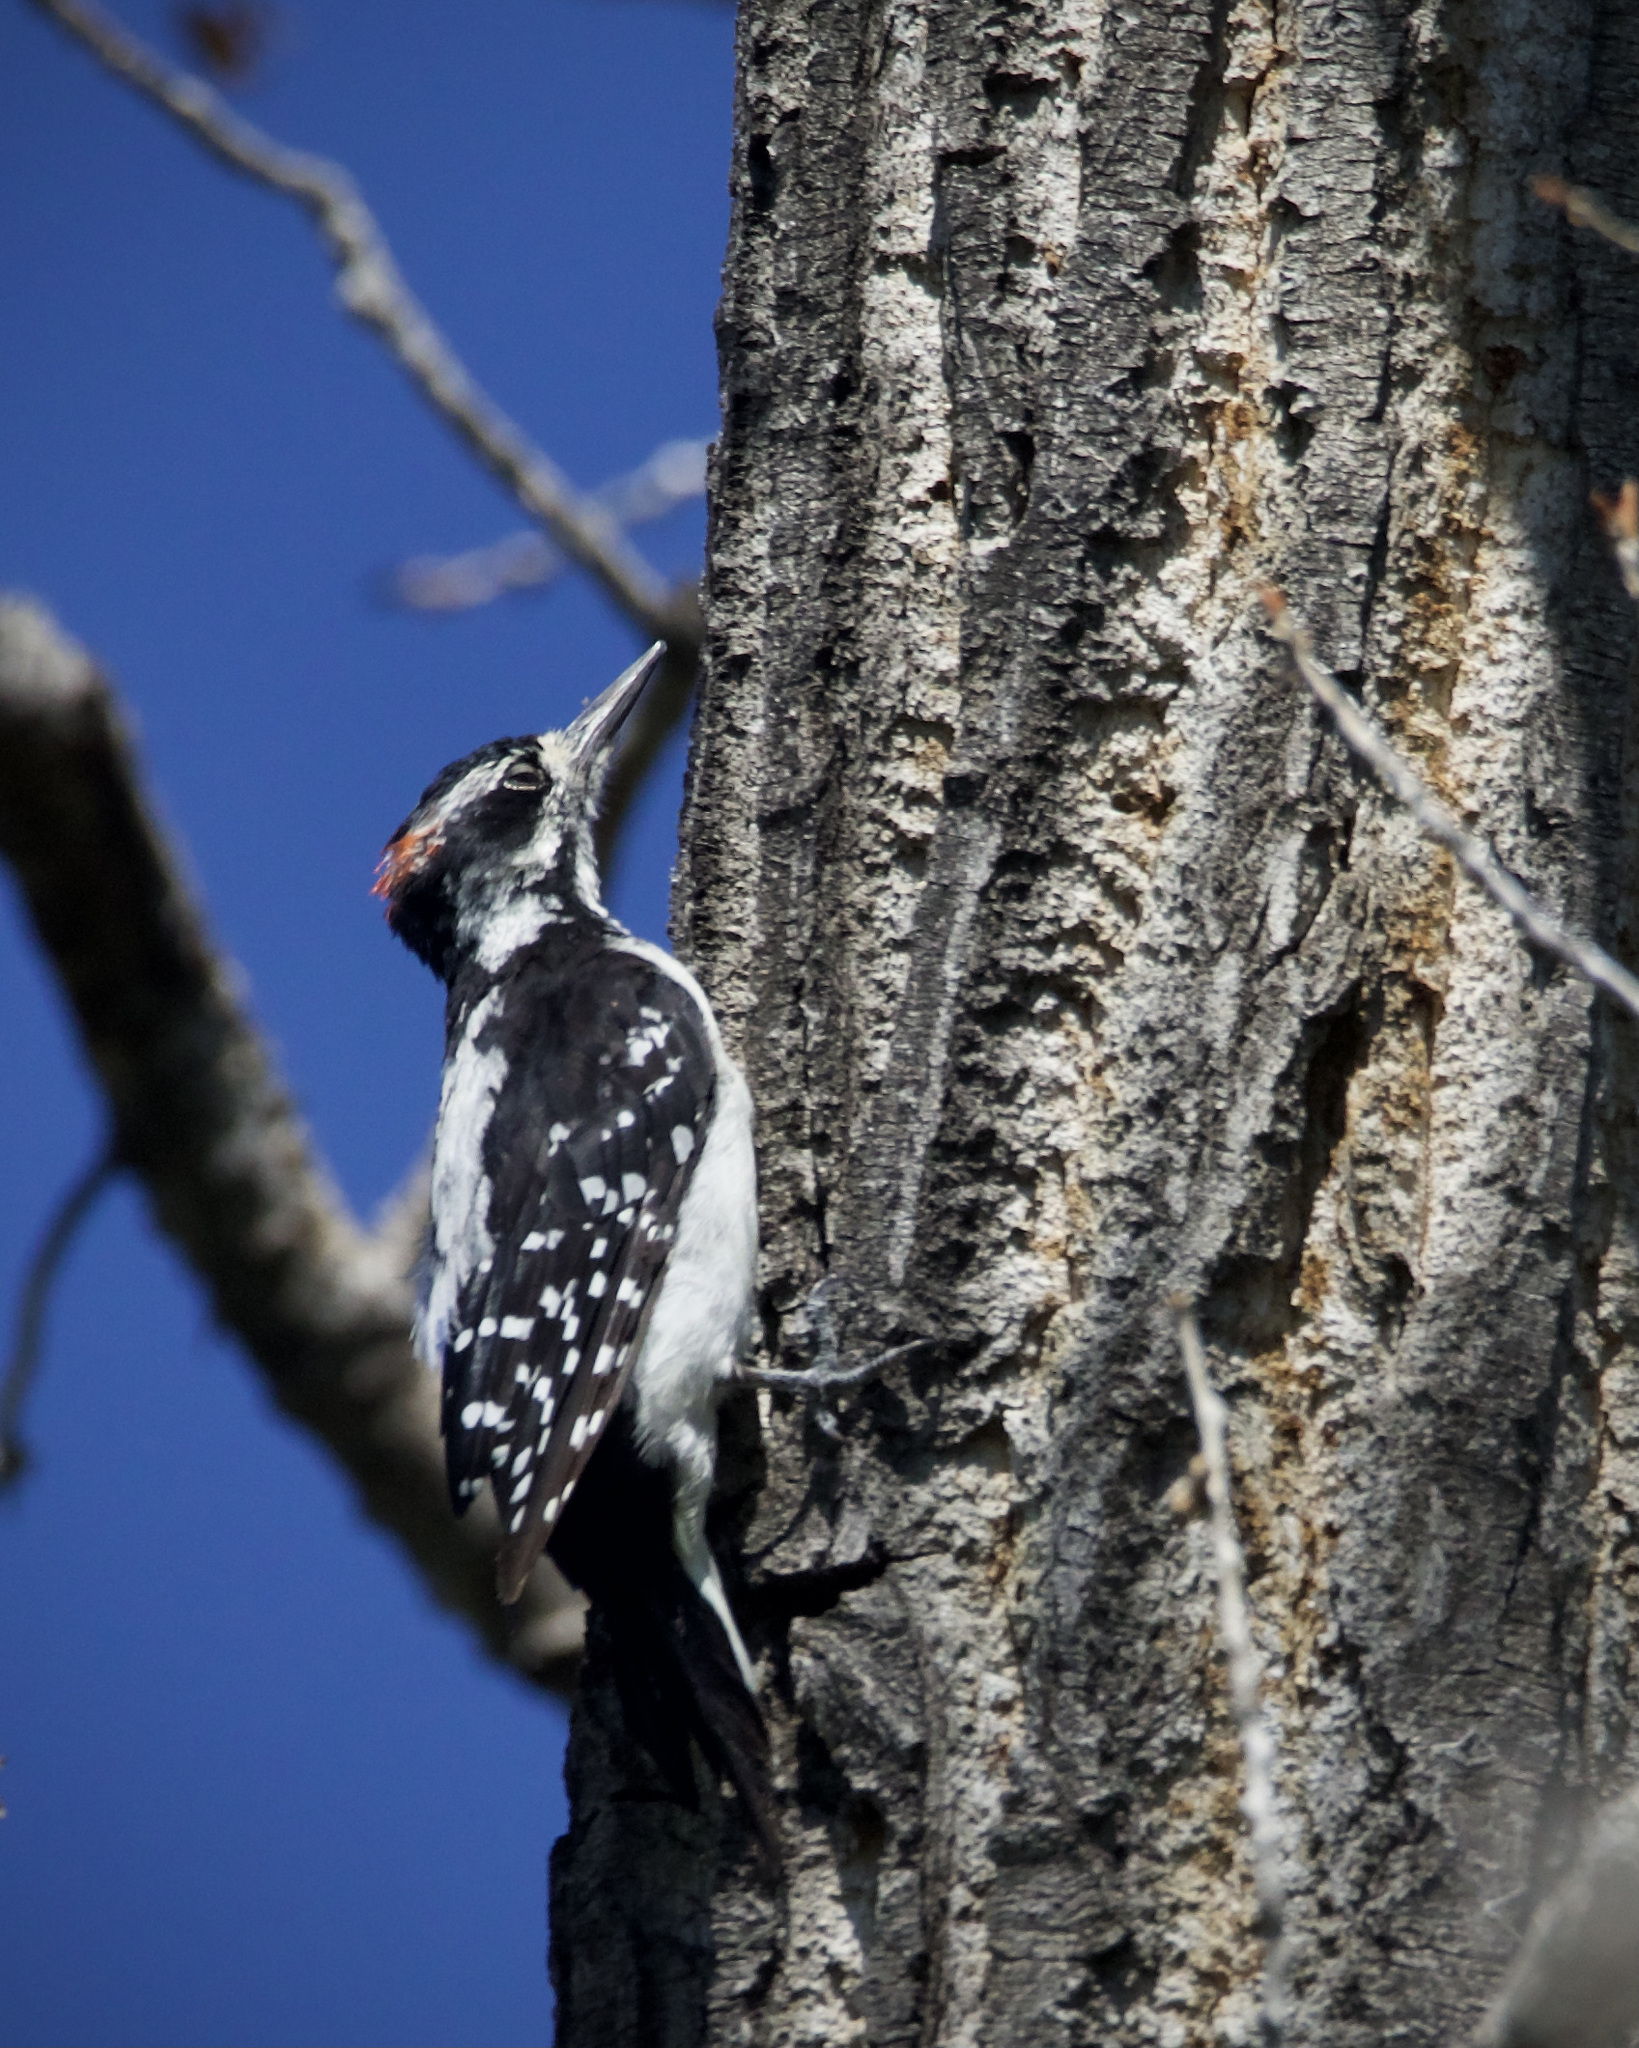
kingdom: Animalia
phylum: Chordata
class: Aves
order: Piciformes
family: Picidae
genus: Leuconotopicus
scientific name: Leuconotopicus villosus
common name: Hairy woodpecker
